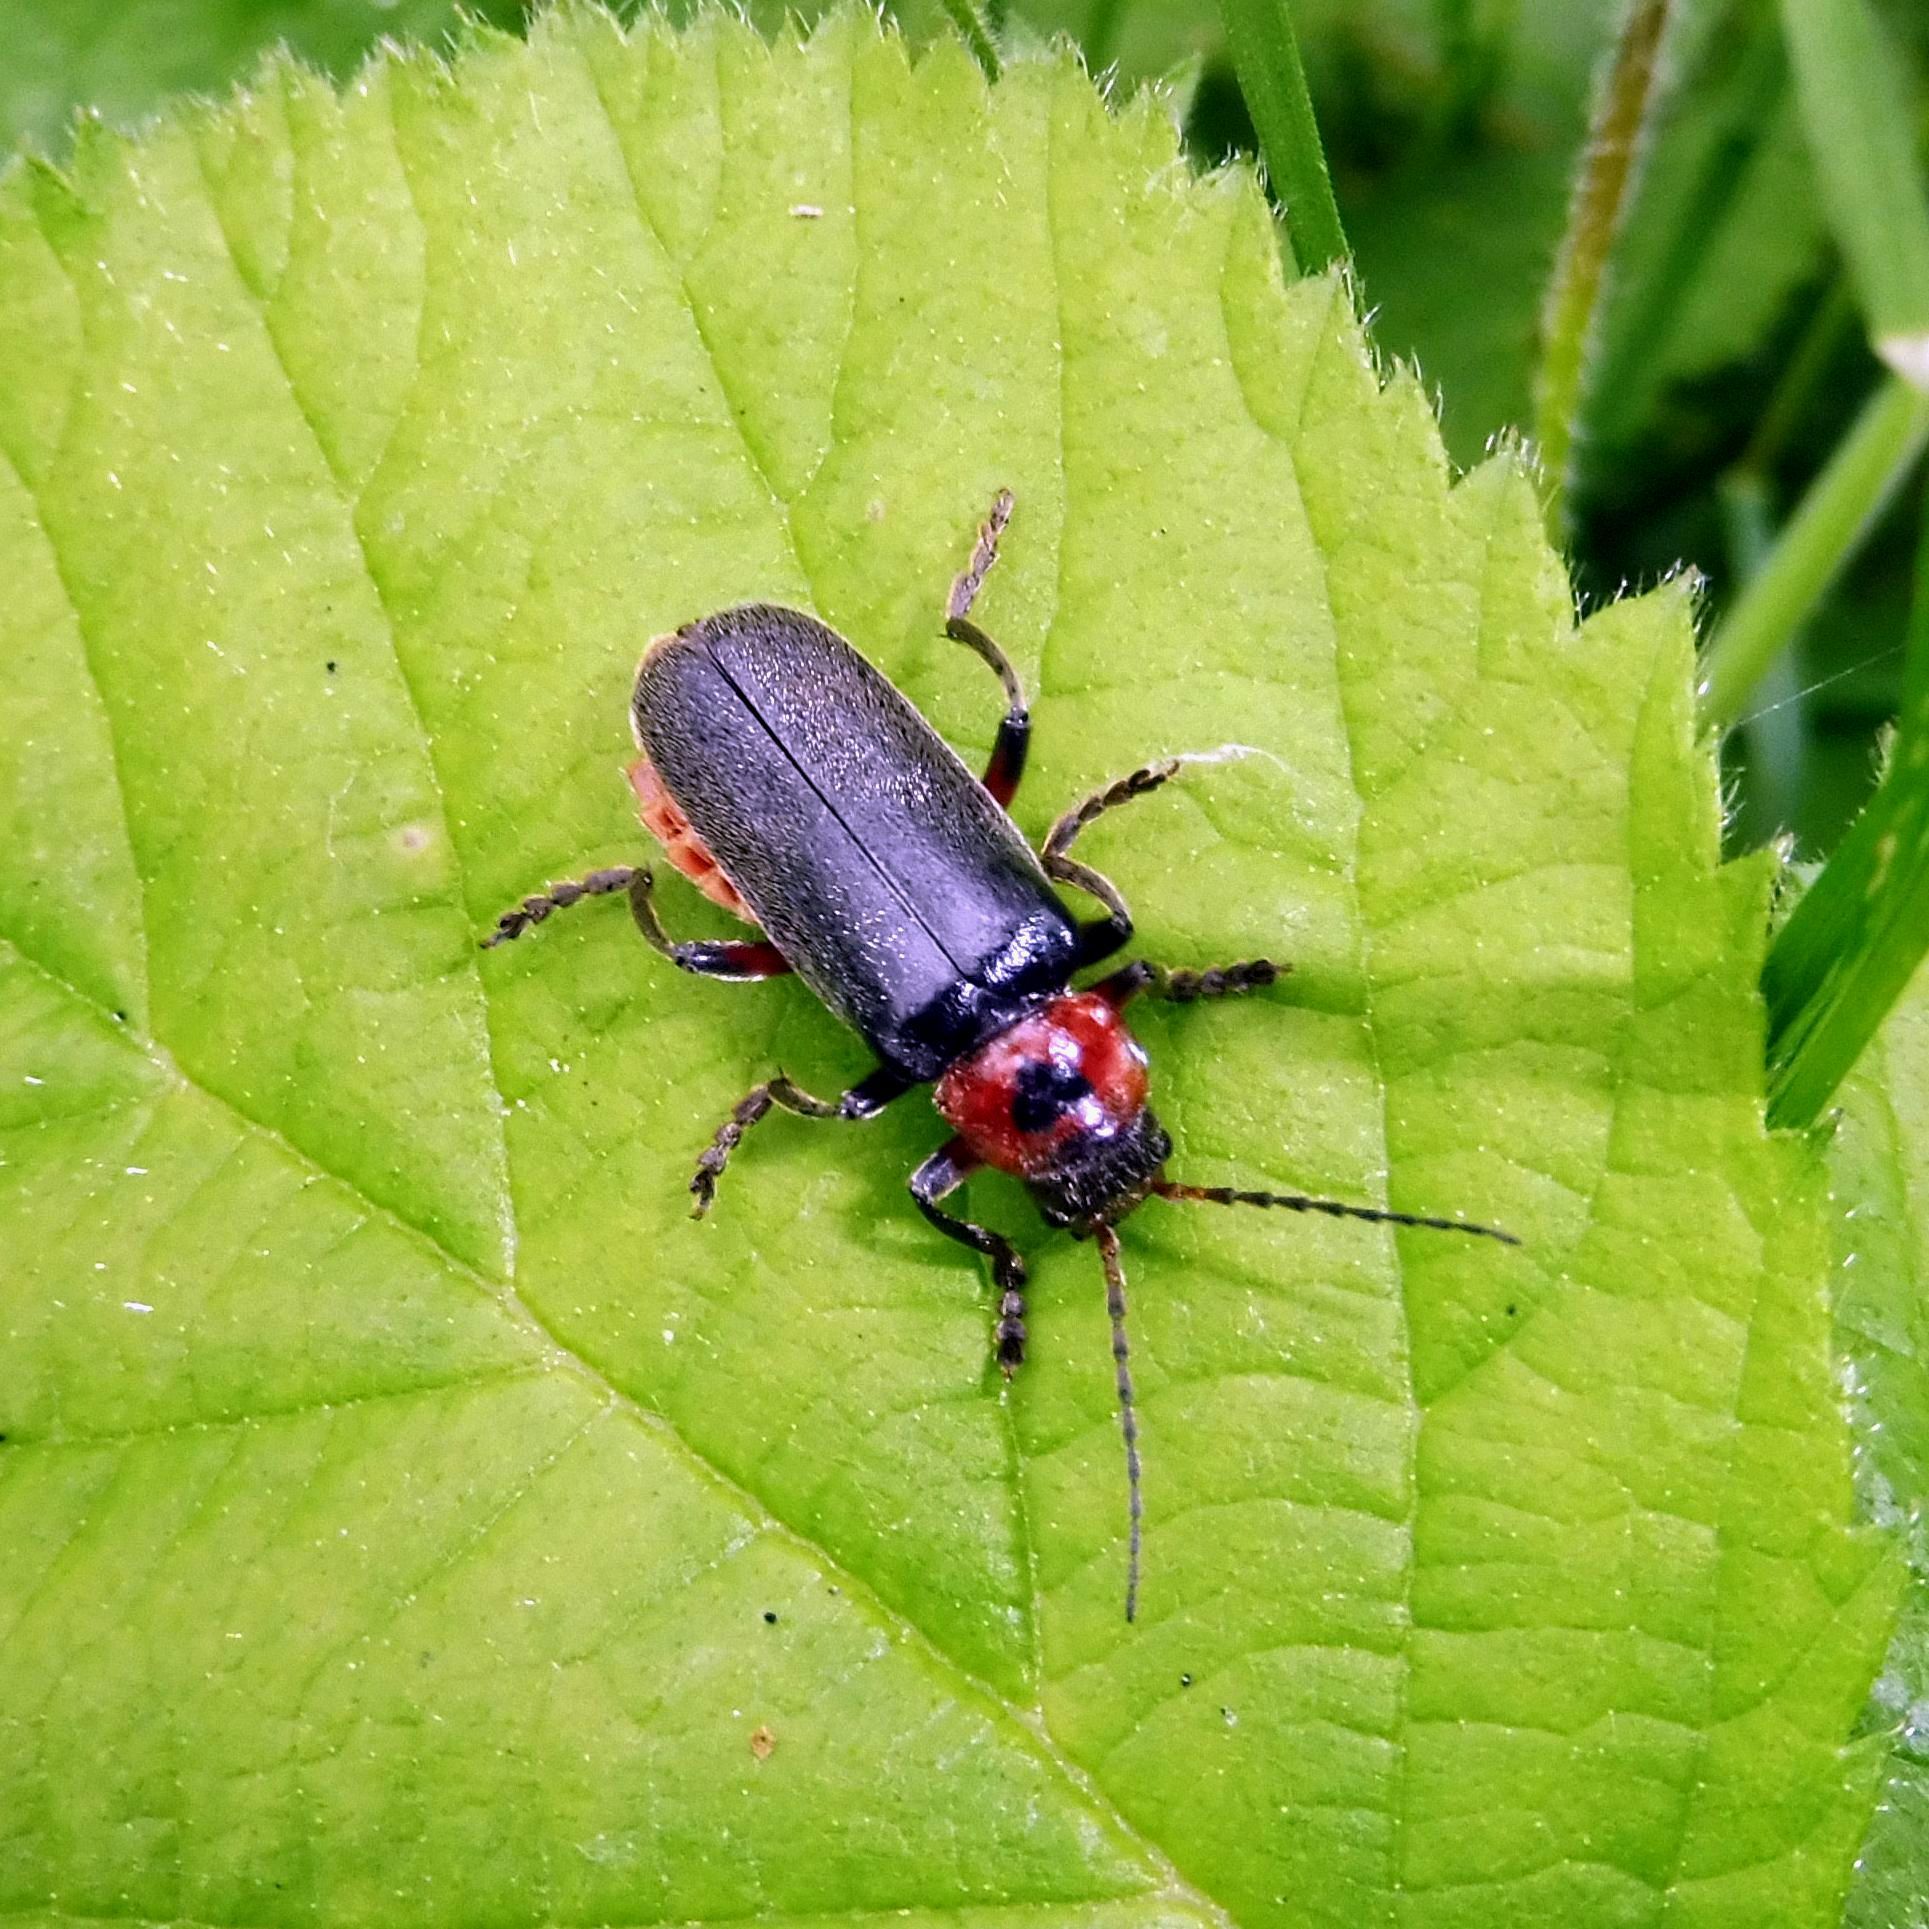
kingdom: Animalia
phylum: Arthropoda
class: Insecta
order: Coleoptera
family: Cantharidae
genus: Cantharis
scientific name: Cantharis rustica
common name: Soldier beetle
